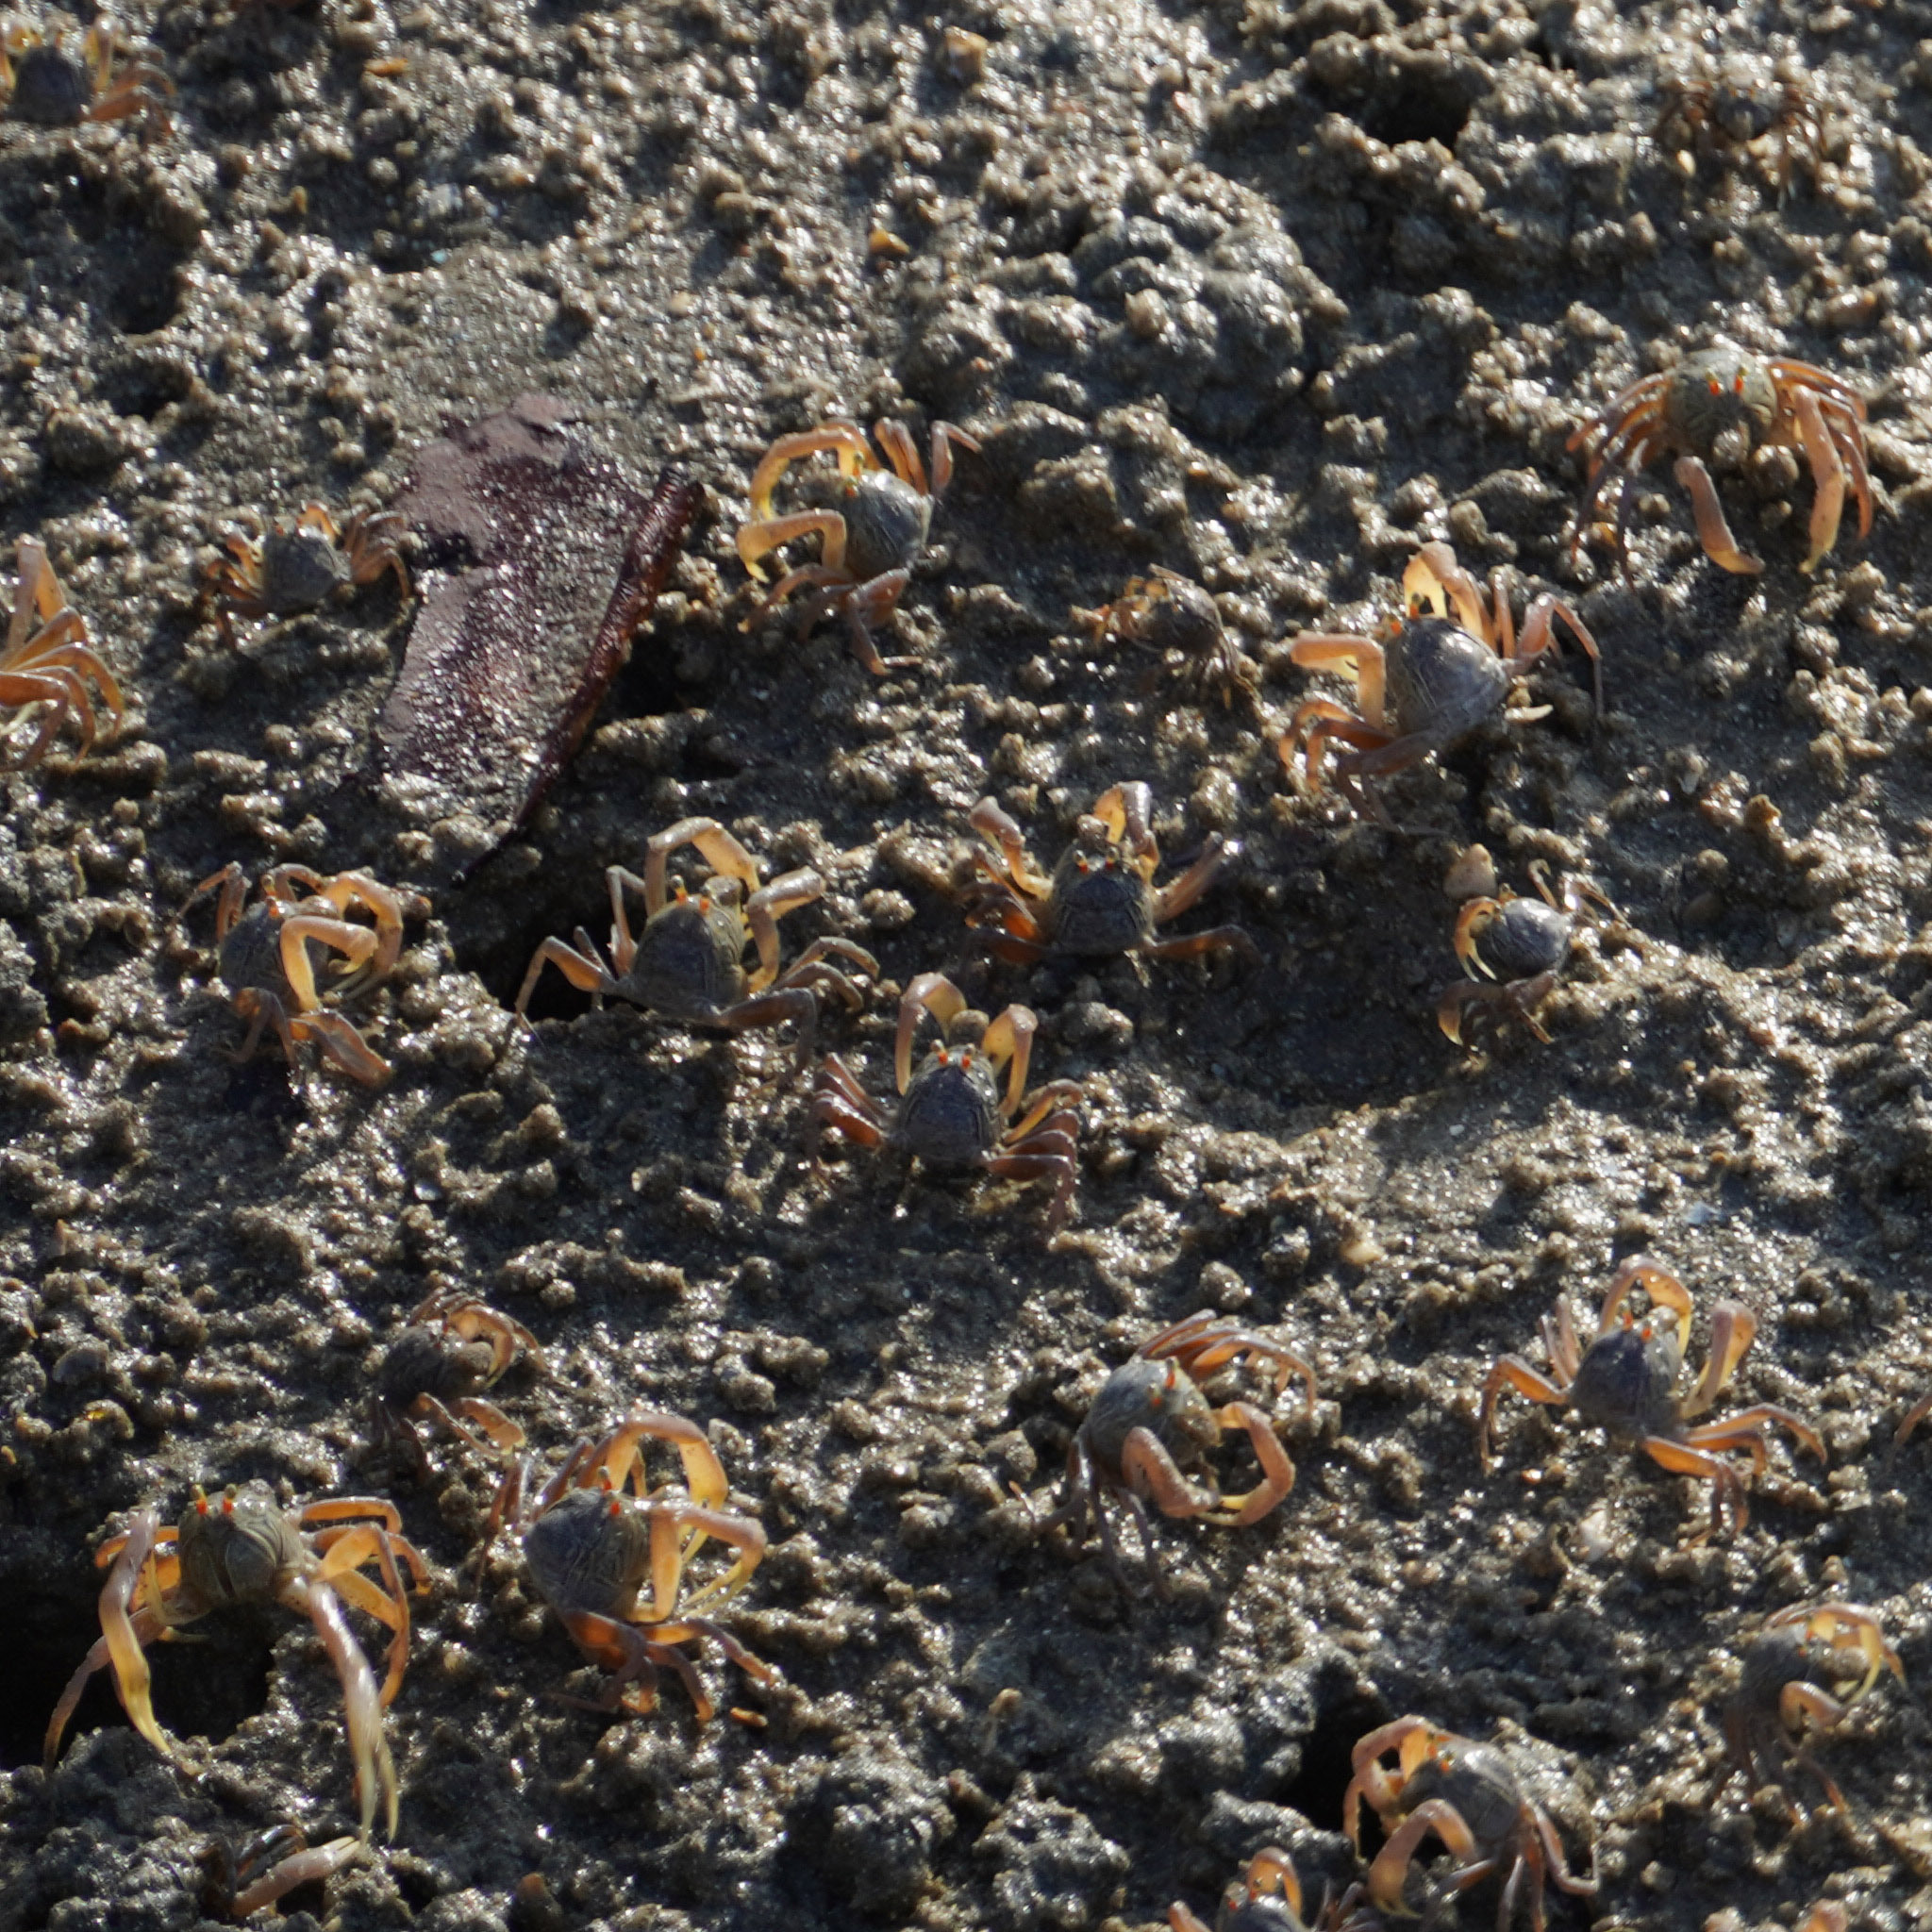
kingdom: Animalia
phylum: Arthropoda
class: Malacostraca
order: Decapoda
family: Dotillidae
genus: Dotilla
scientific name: Dotilla myctiroides
